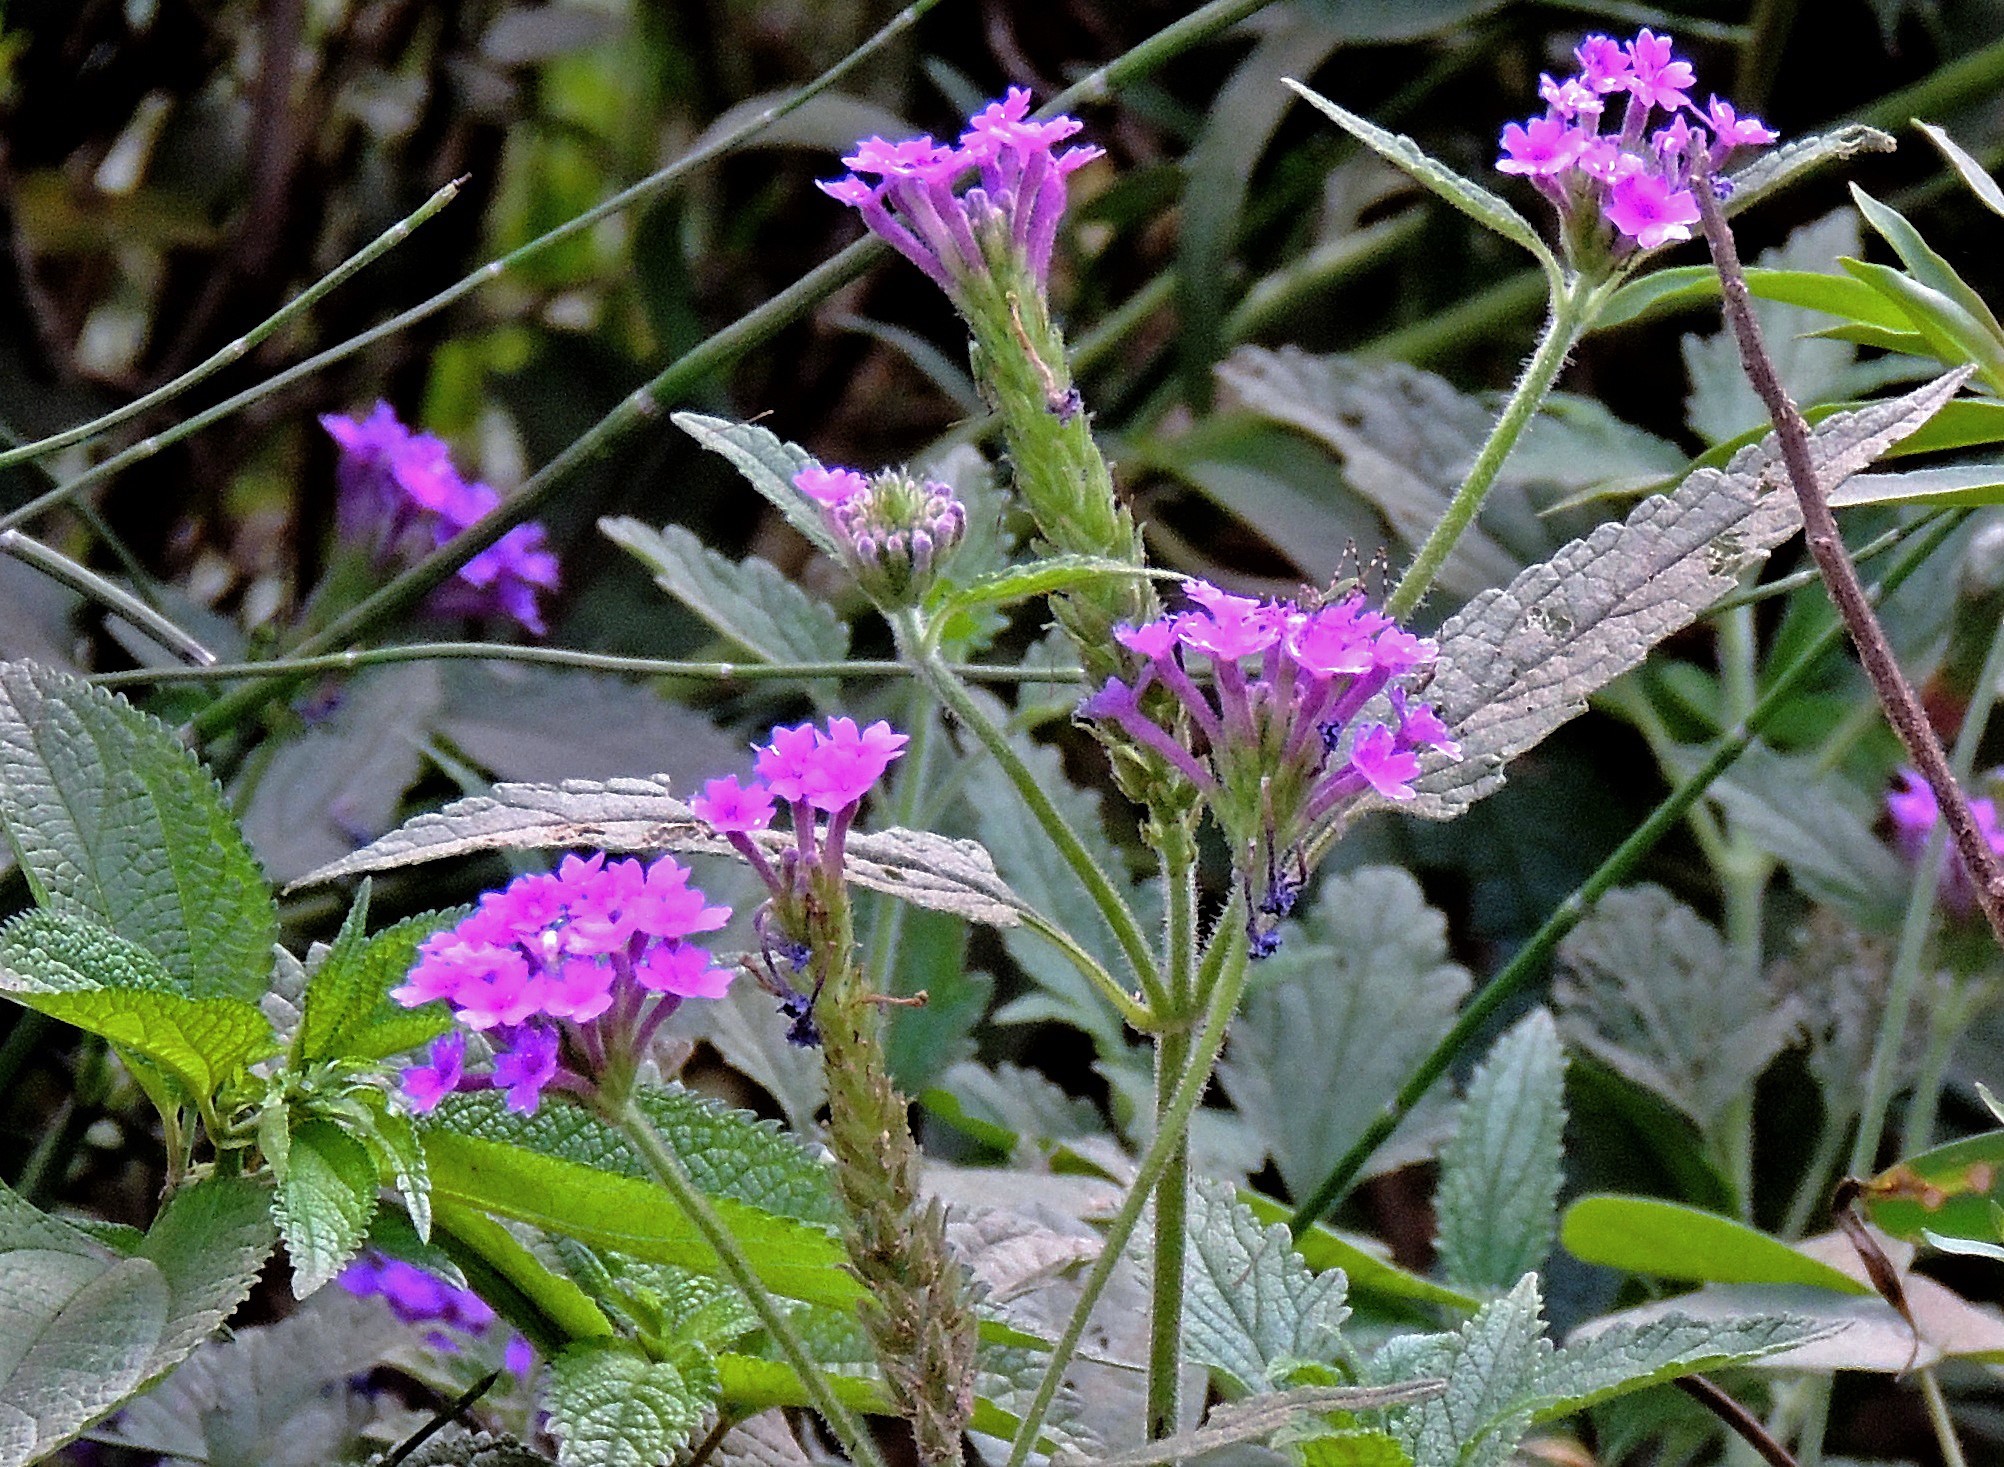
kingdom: Plantae
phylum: Tracheophyta
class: Magnoliopsida
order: Lamiales
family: Verbenaceae
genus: Verbena
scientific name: Verbena scrobiculata
